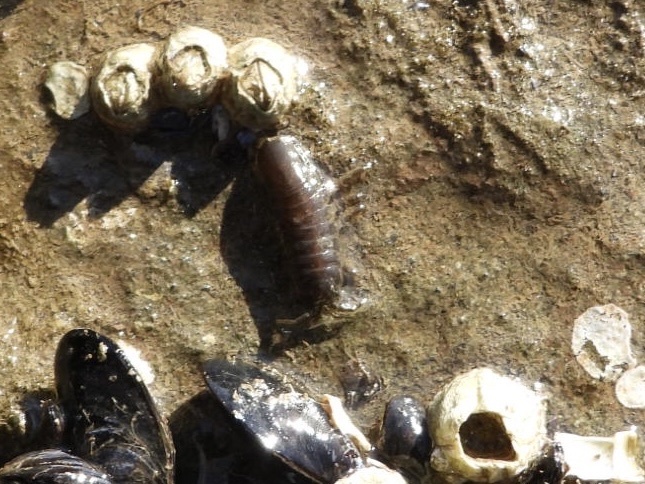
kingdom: Animalia
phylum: Arthropoda
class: Malacostraca
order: Isopoda
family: Idoteidae
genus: Pentidotea
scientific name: Pentidotea wosnesenskii
